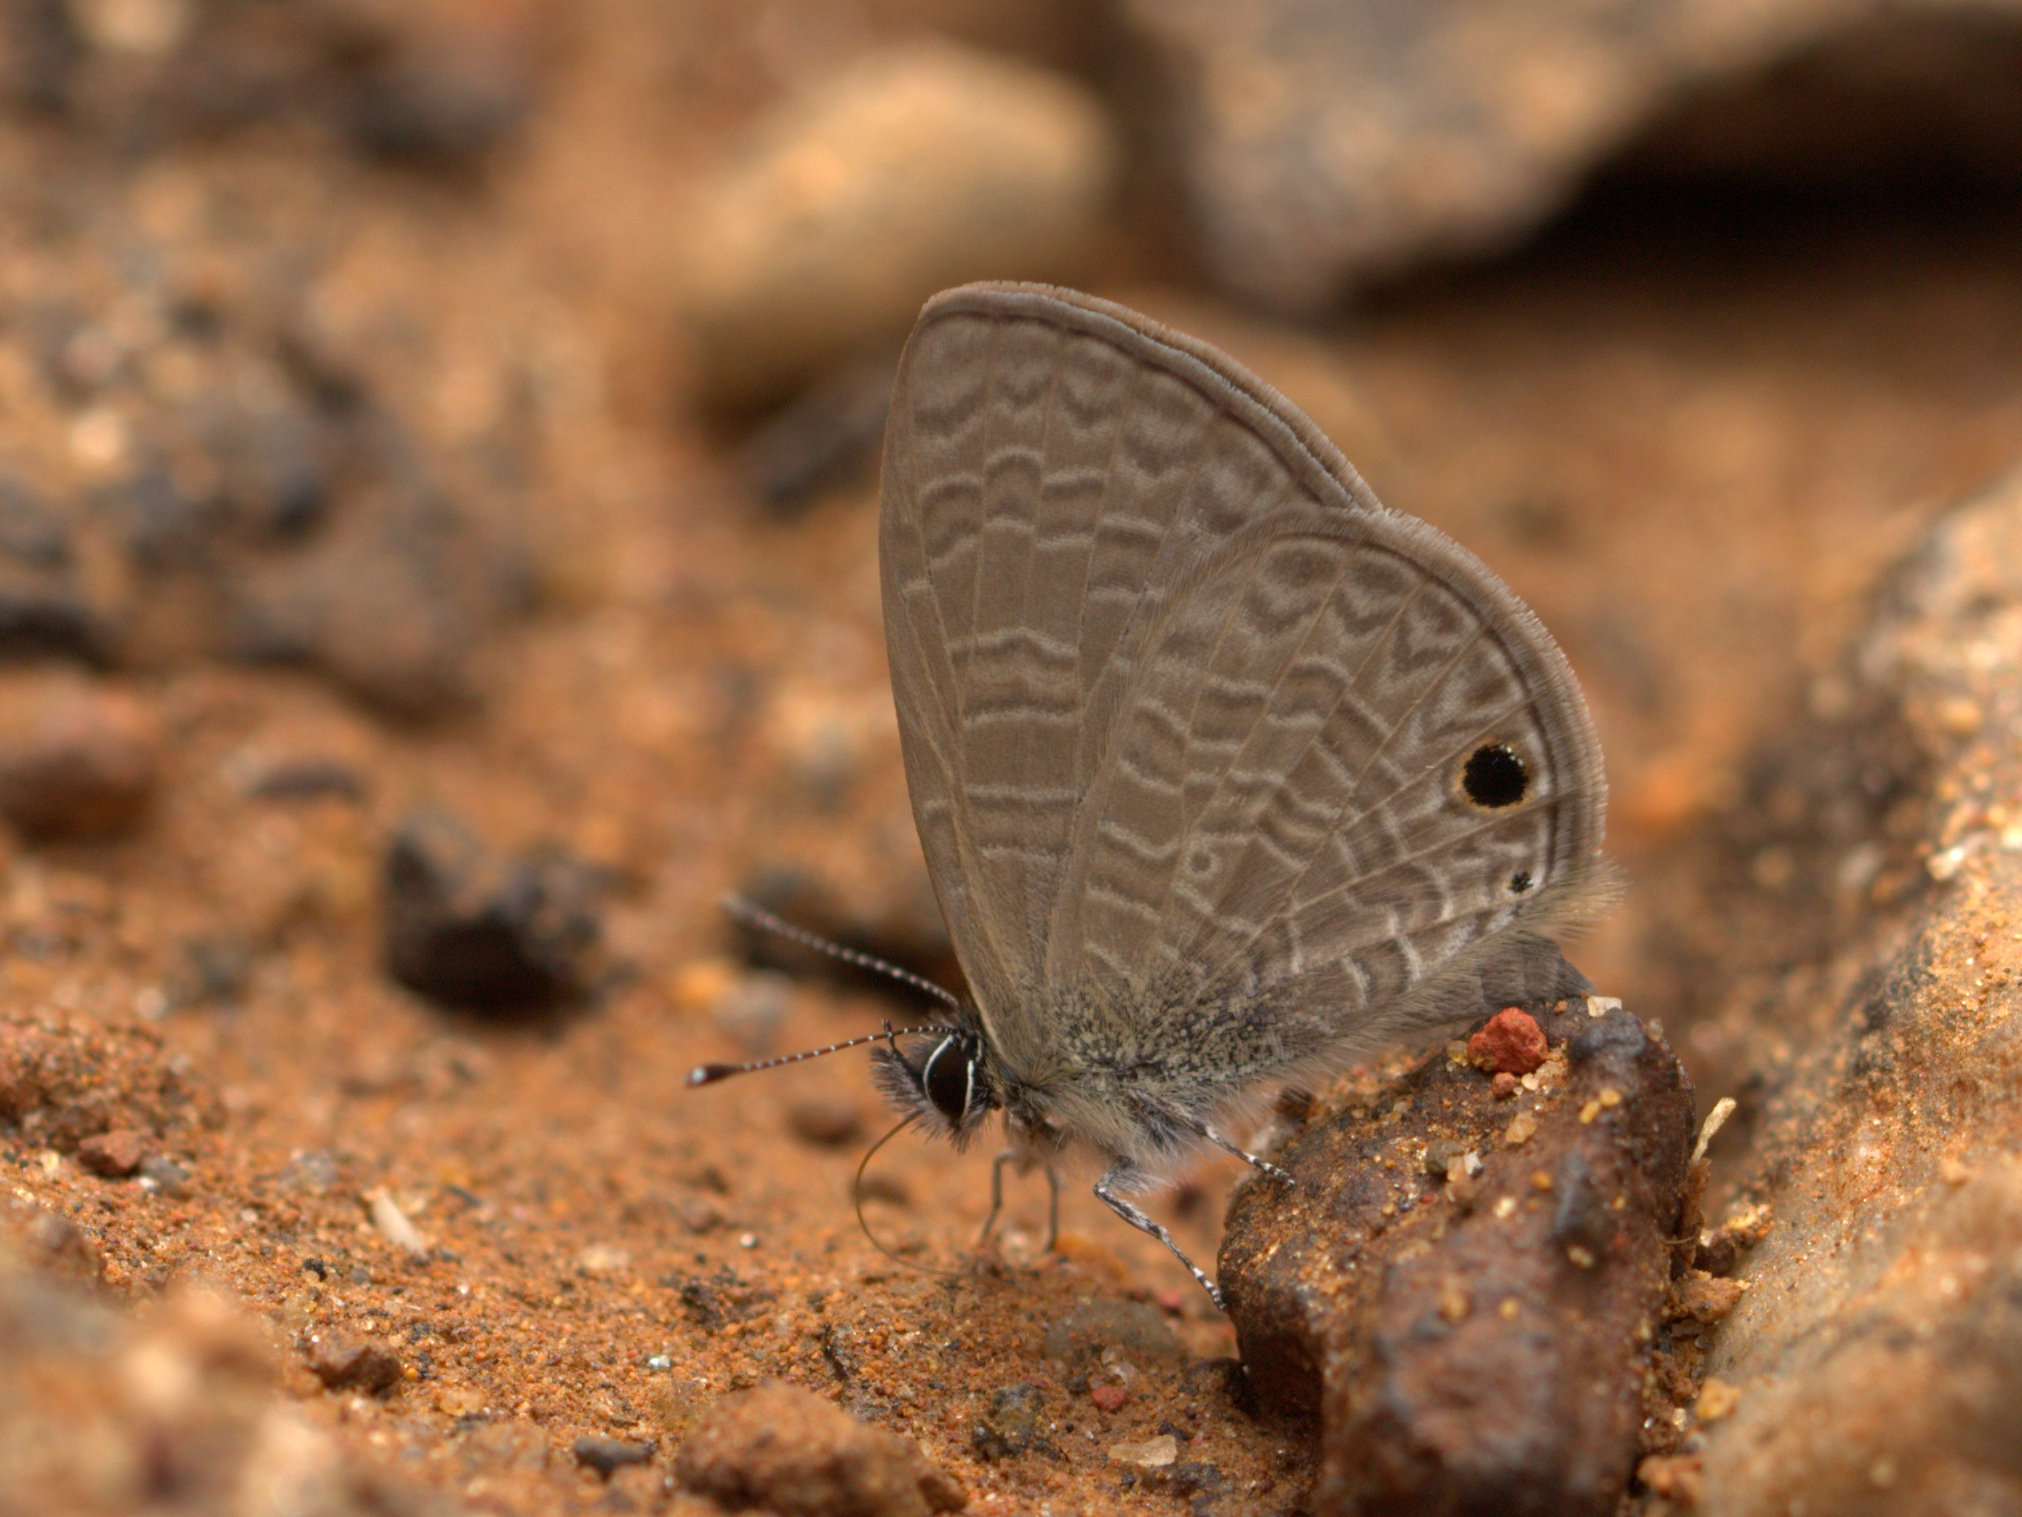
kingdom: Animalia
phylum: Arthropoda
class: Insecta
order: Lepidoptera
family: Lycaenidae
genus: Prosotas
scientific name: Prosotas dubiosa
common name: Tailless lineblue
